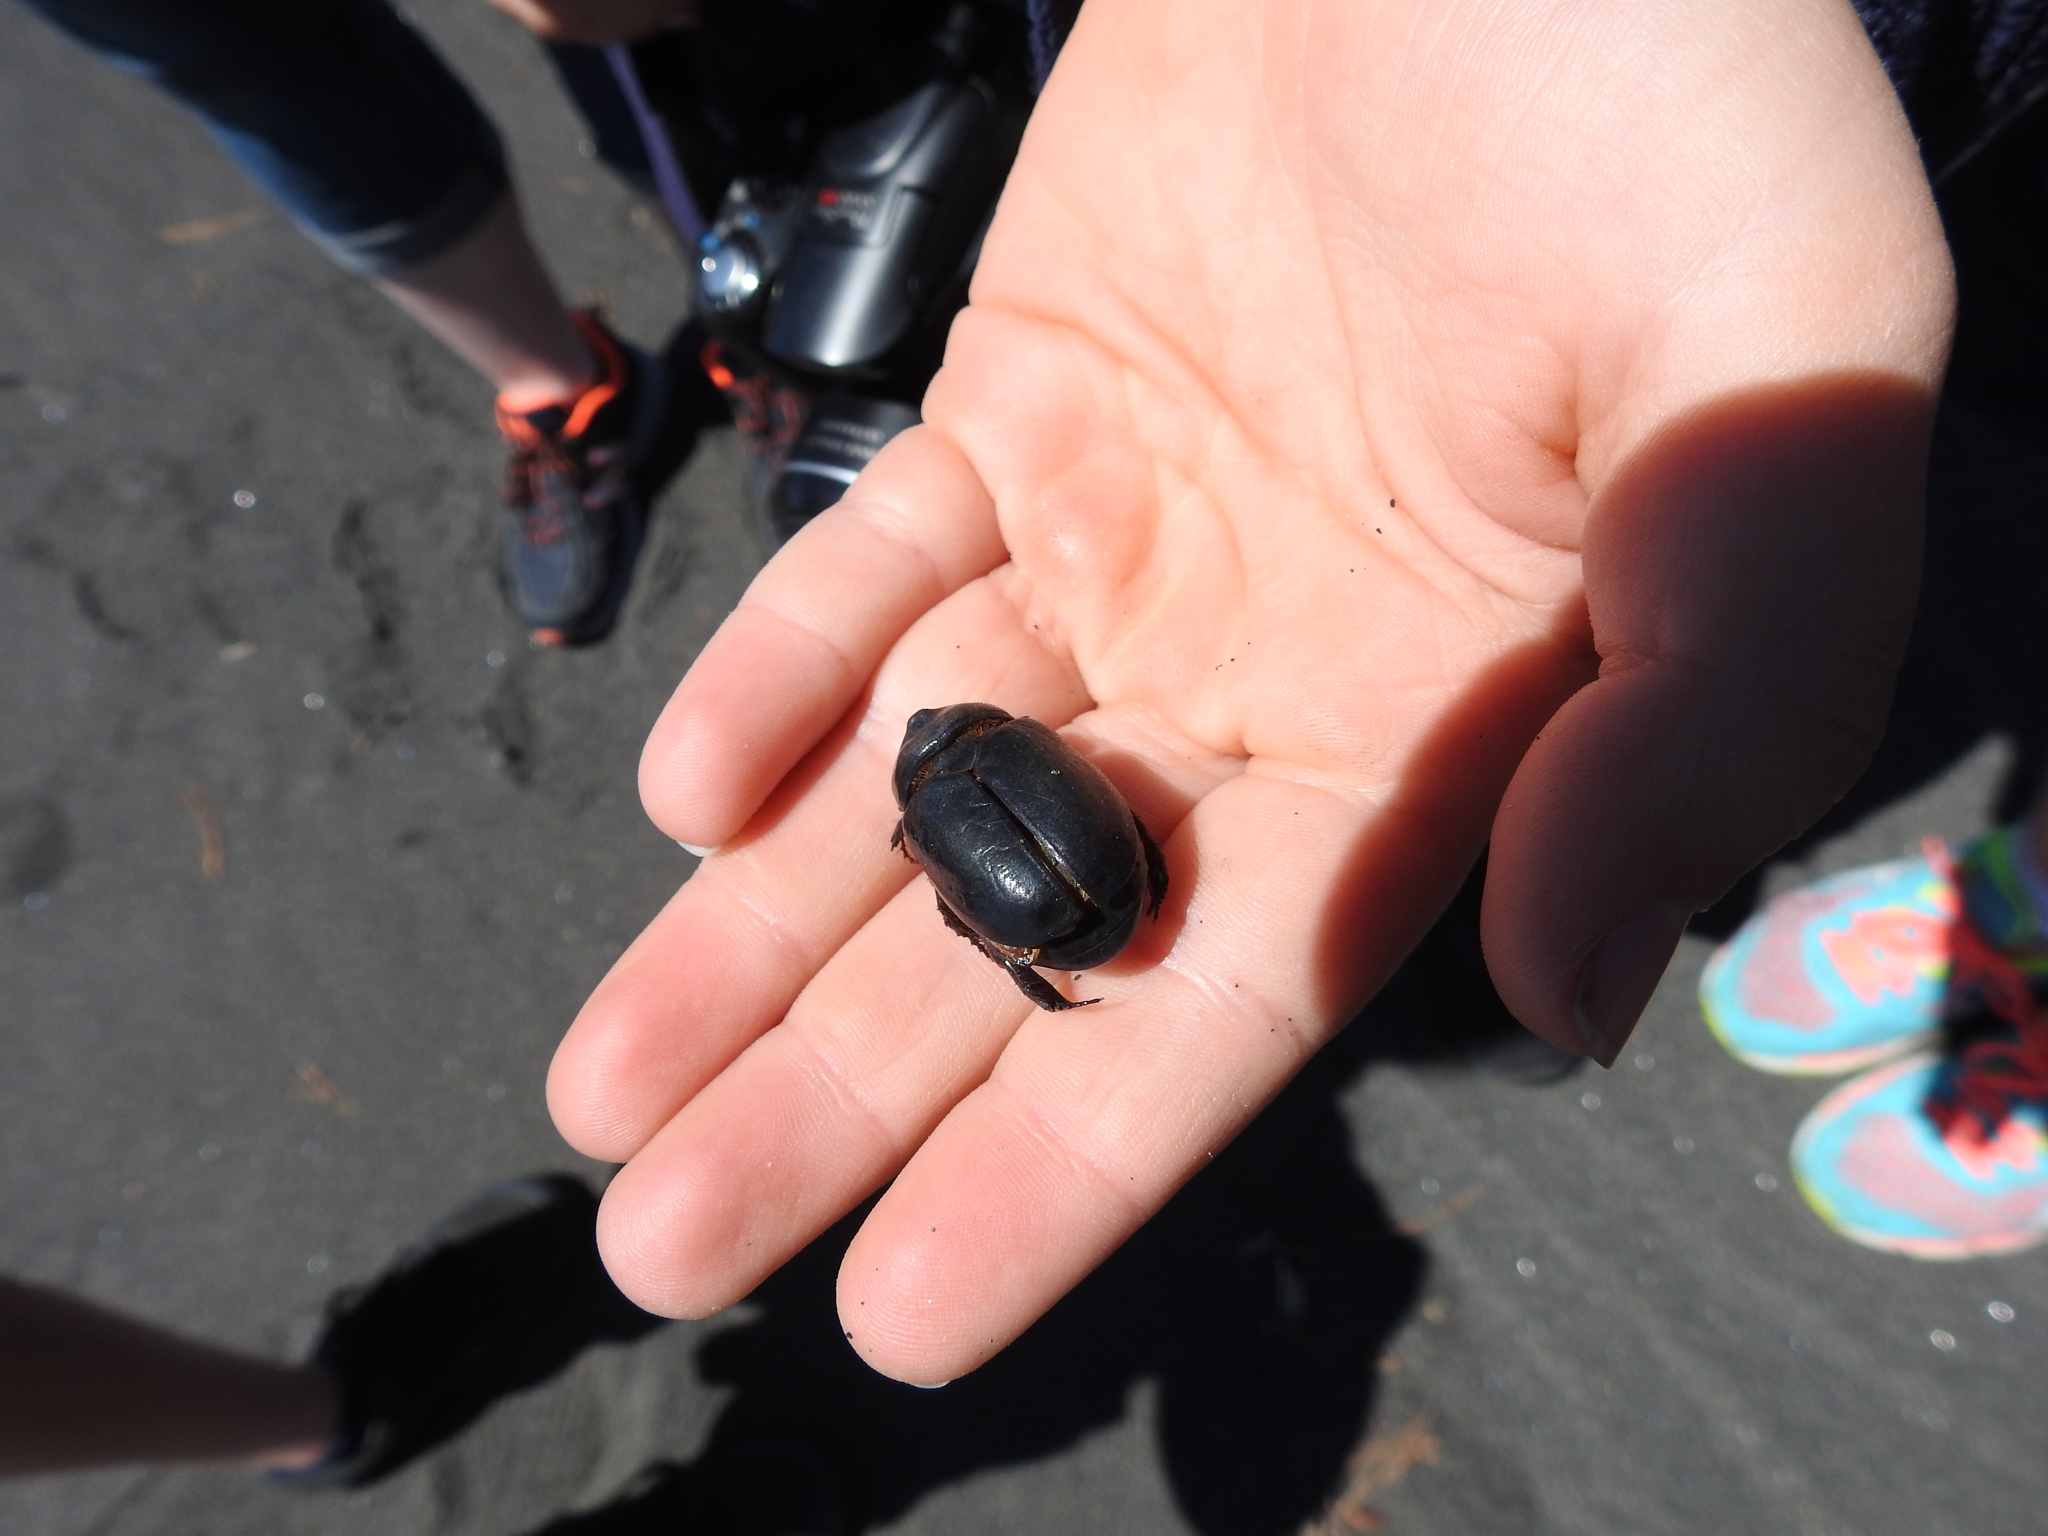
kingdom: Animalia
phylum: Arthropoda
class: Insecta
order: Coleoptera
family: Scarabaeidae
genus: Pericoptus
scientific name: Pericoptus truncatus
